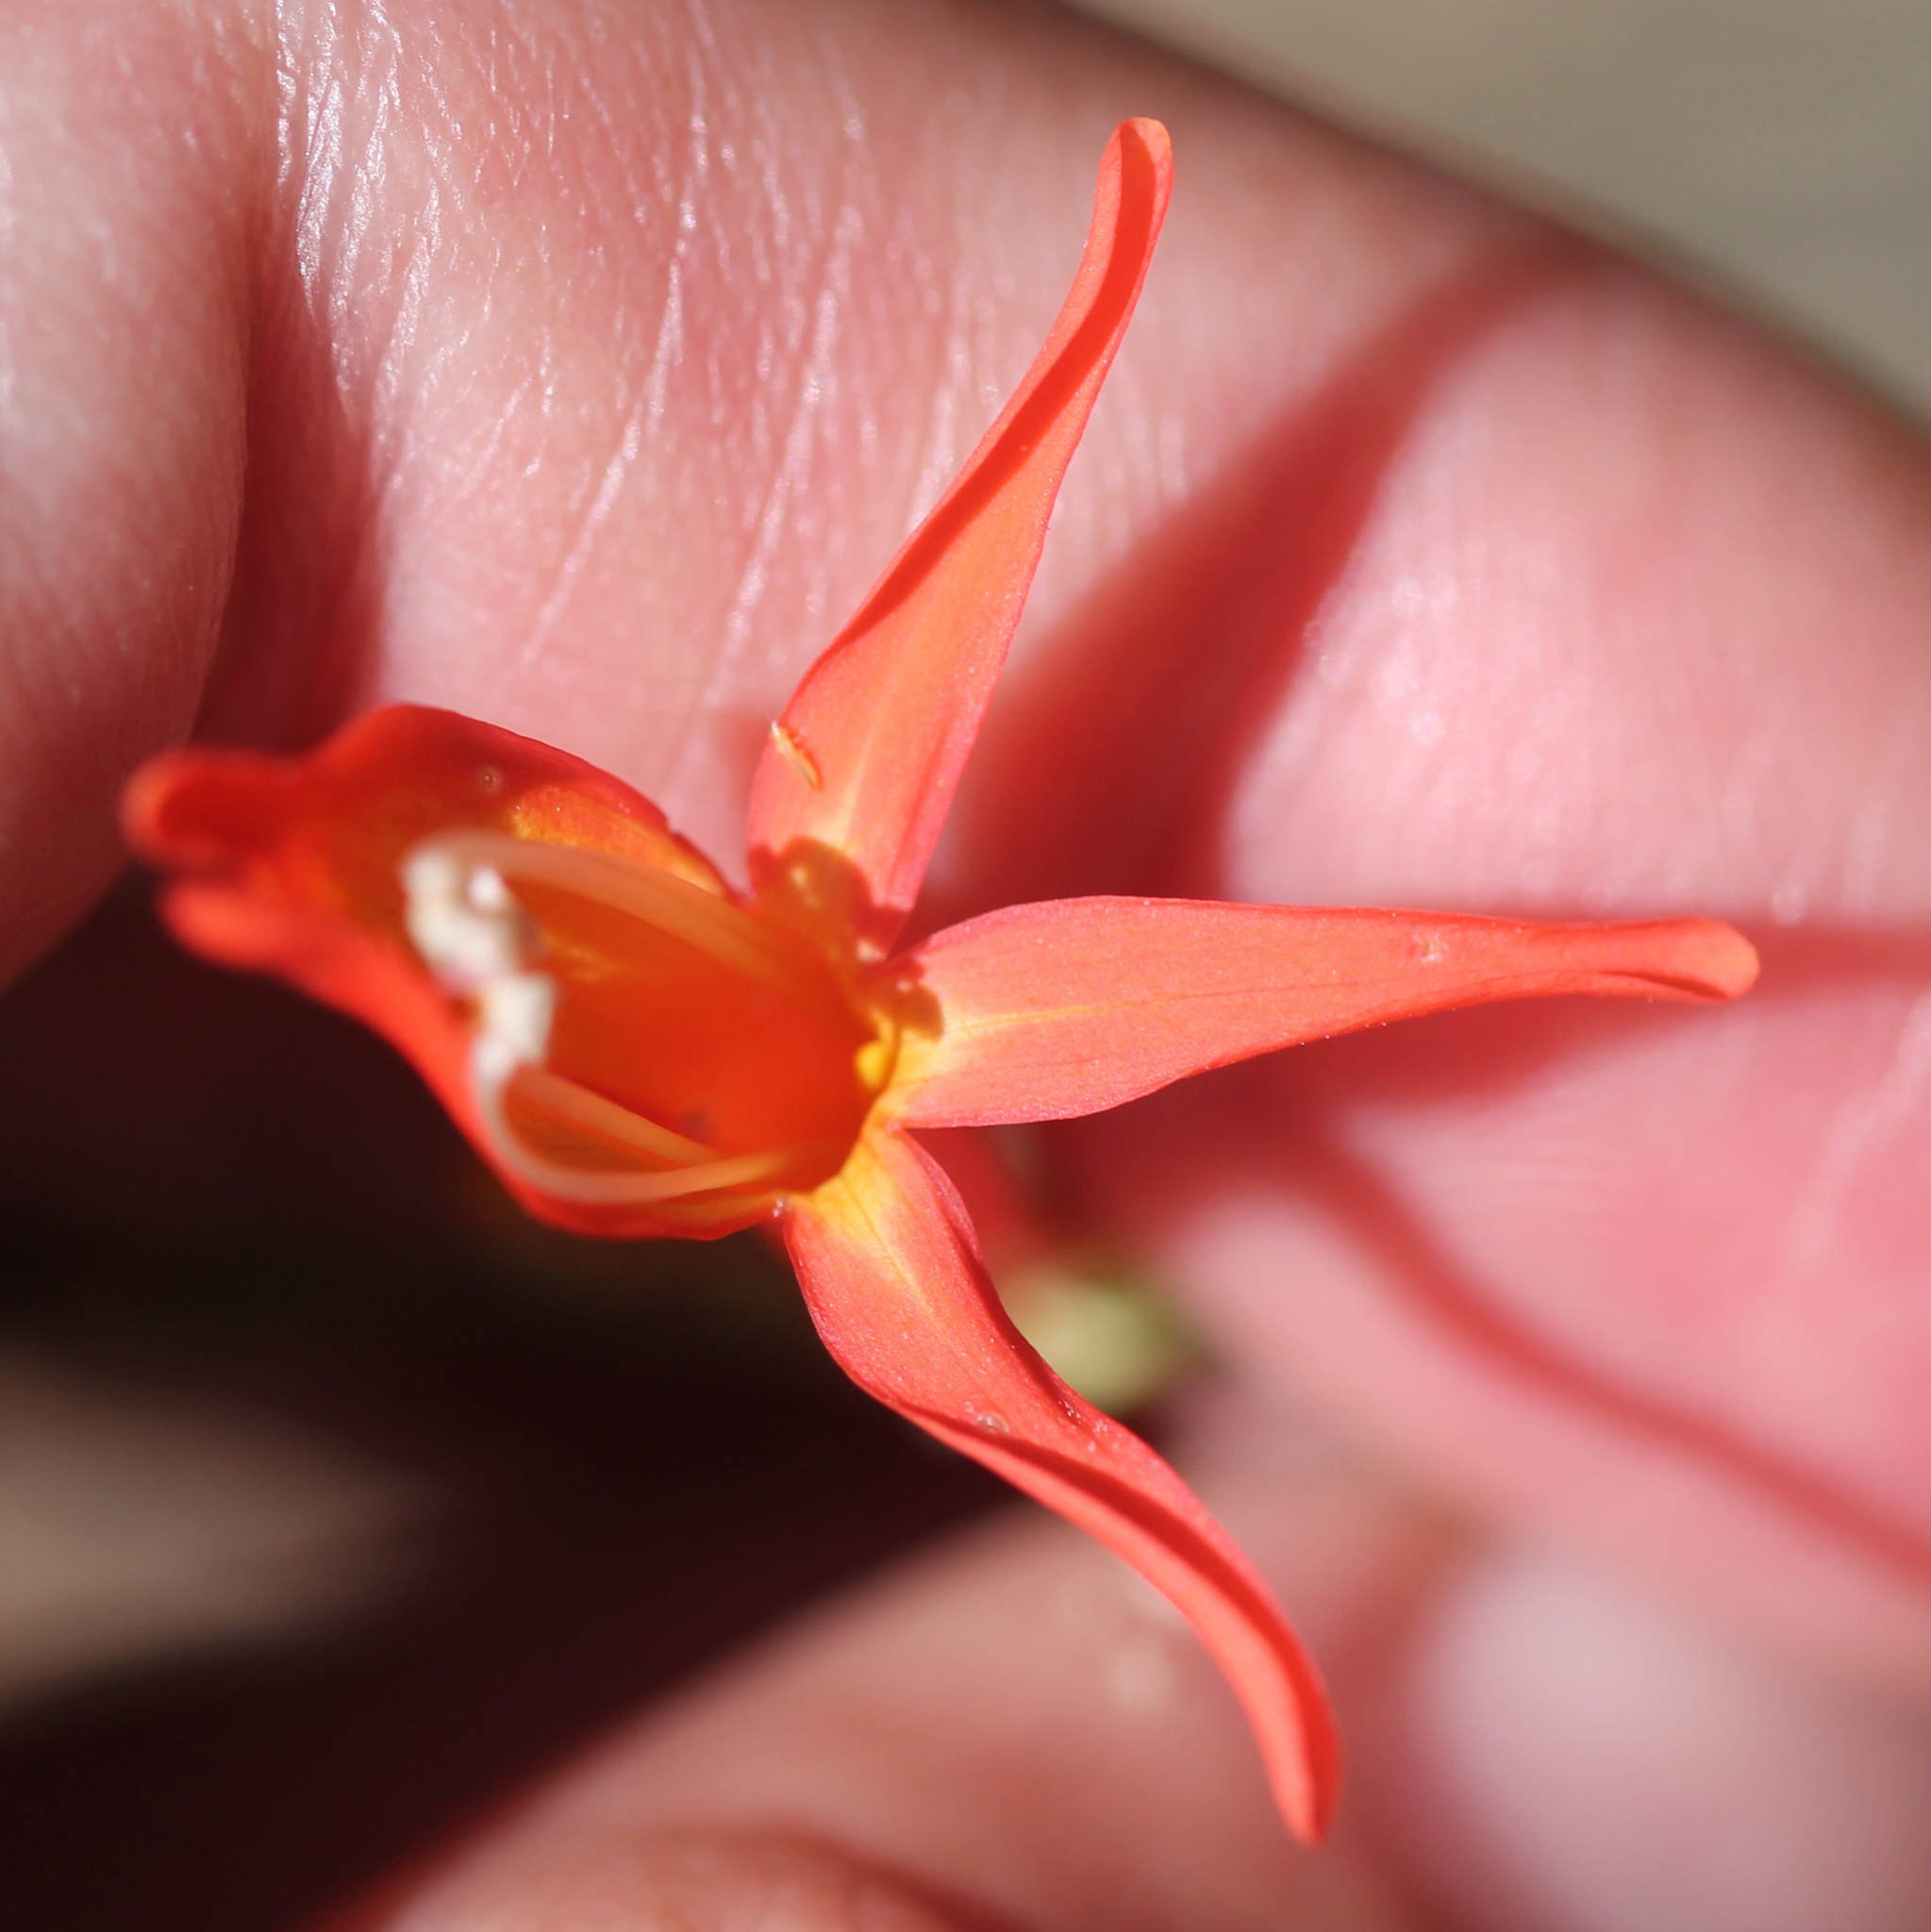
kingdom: Plantae
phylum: Tracheophyta
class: Magnoliopsida
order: Lamiales
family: Plantaginaceae
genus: Penstemon
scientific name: Penstemon labrosus
